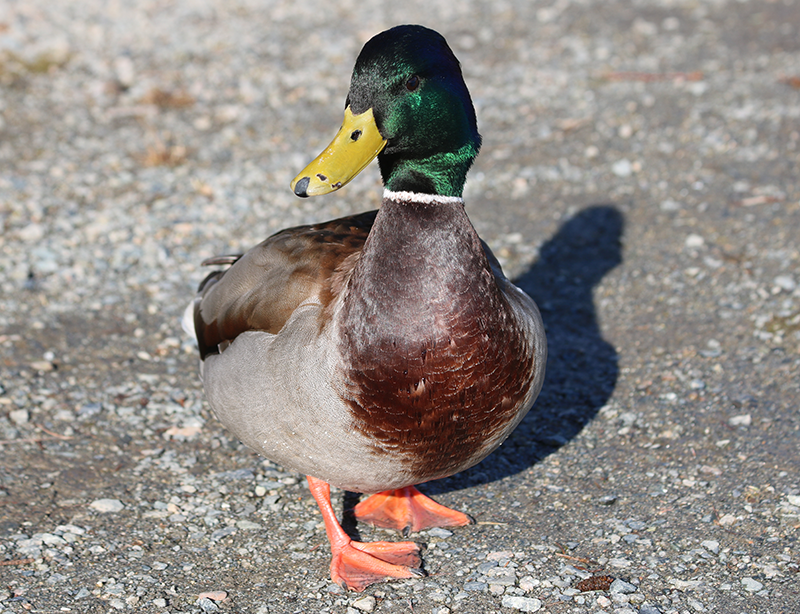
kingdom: Animalia
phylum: Chordata
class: Aves
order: Anseriformes
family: Anatidae
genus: Anas
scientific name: Anas platyrhynchos
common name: Mallard
